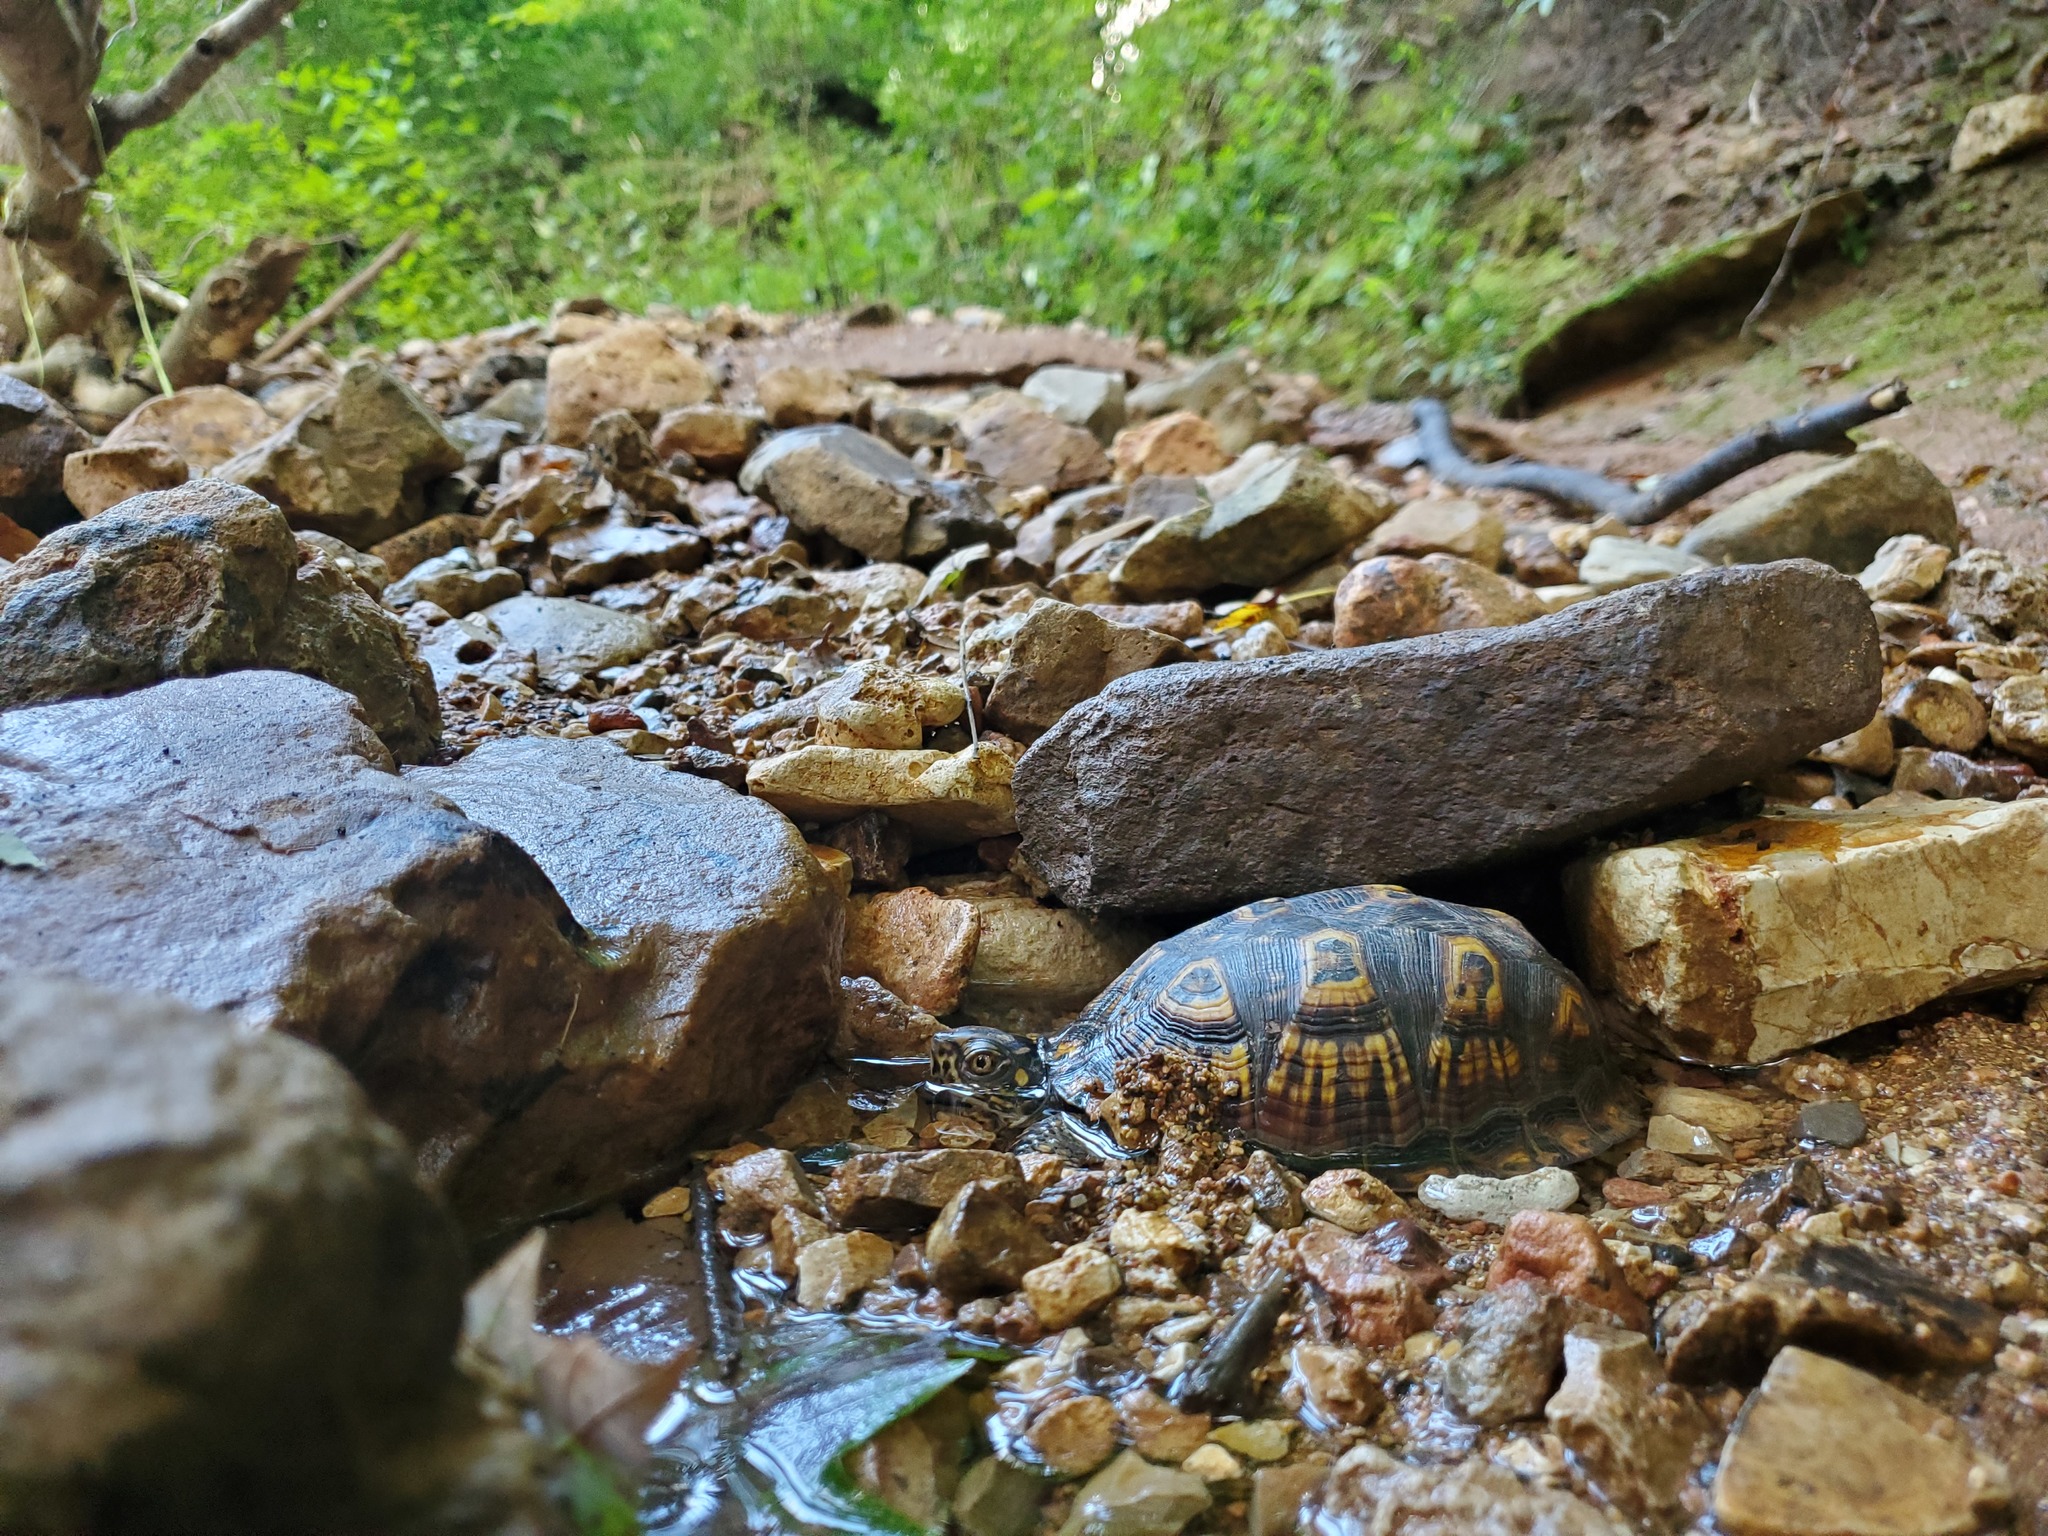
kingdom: Animalia
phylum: Chordata
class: Testudines
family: Emydidae
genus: Terrapene
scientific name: Terrapene carolina
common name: Common box turtle
